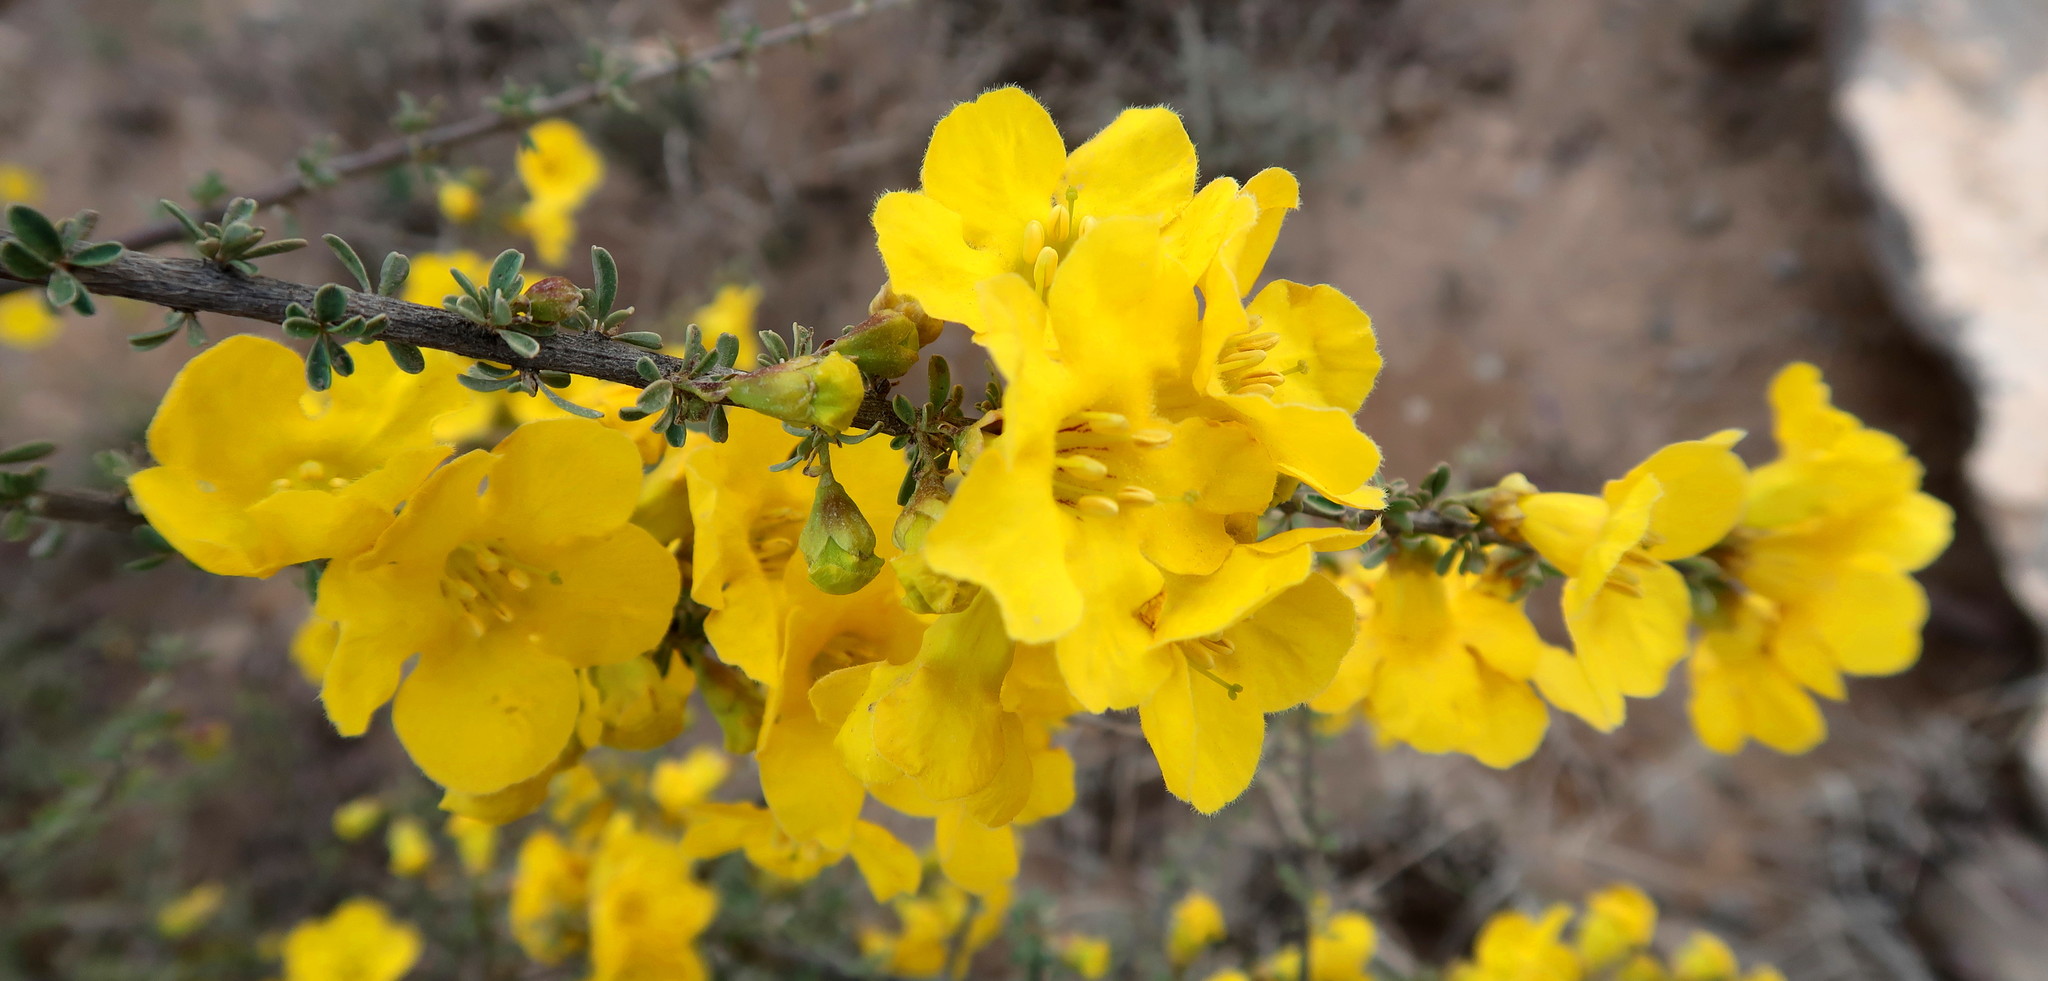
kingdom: Plantae
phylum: Tracheophyta
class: Magnoliopsida
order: Lamiales
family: Bignoniaceae
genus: Rhigozum
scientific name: Rhigozum obovatum
